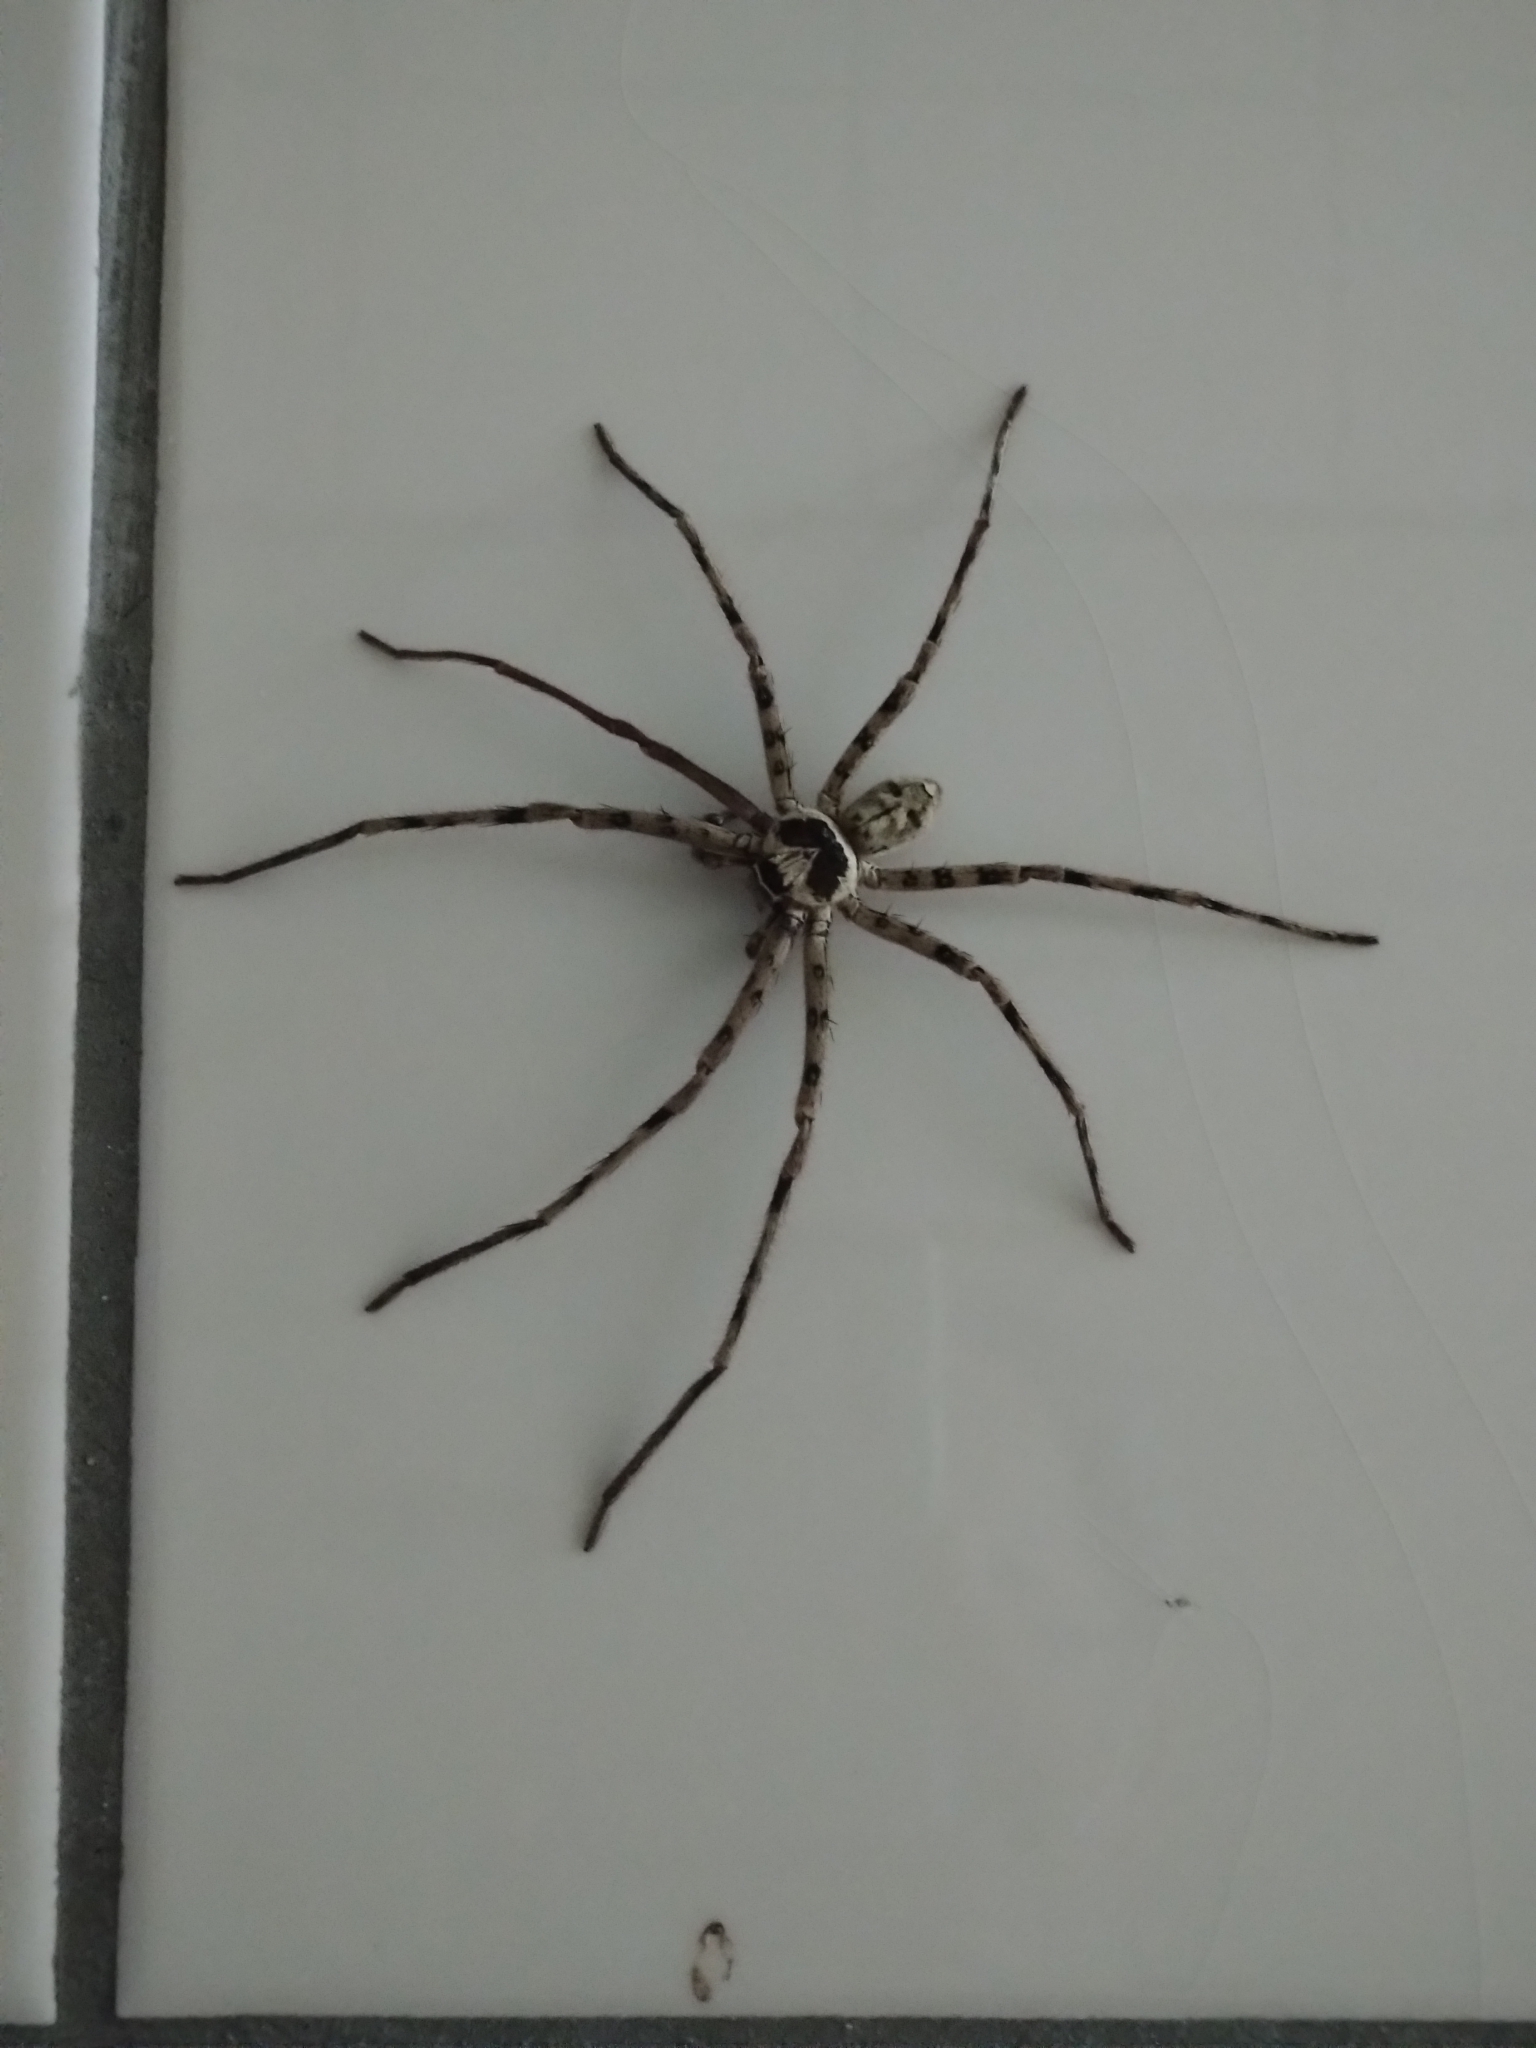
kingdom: Animalia
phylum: Arthropoda
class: Arachnida
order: Araneae
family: Sparassidae
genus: Heteropoda
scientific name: Heteropoda venatoria
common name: Huntsman spider
